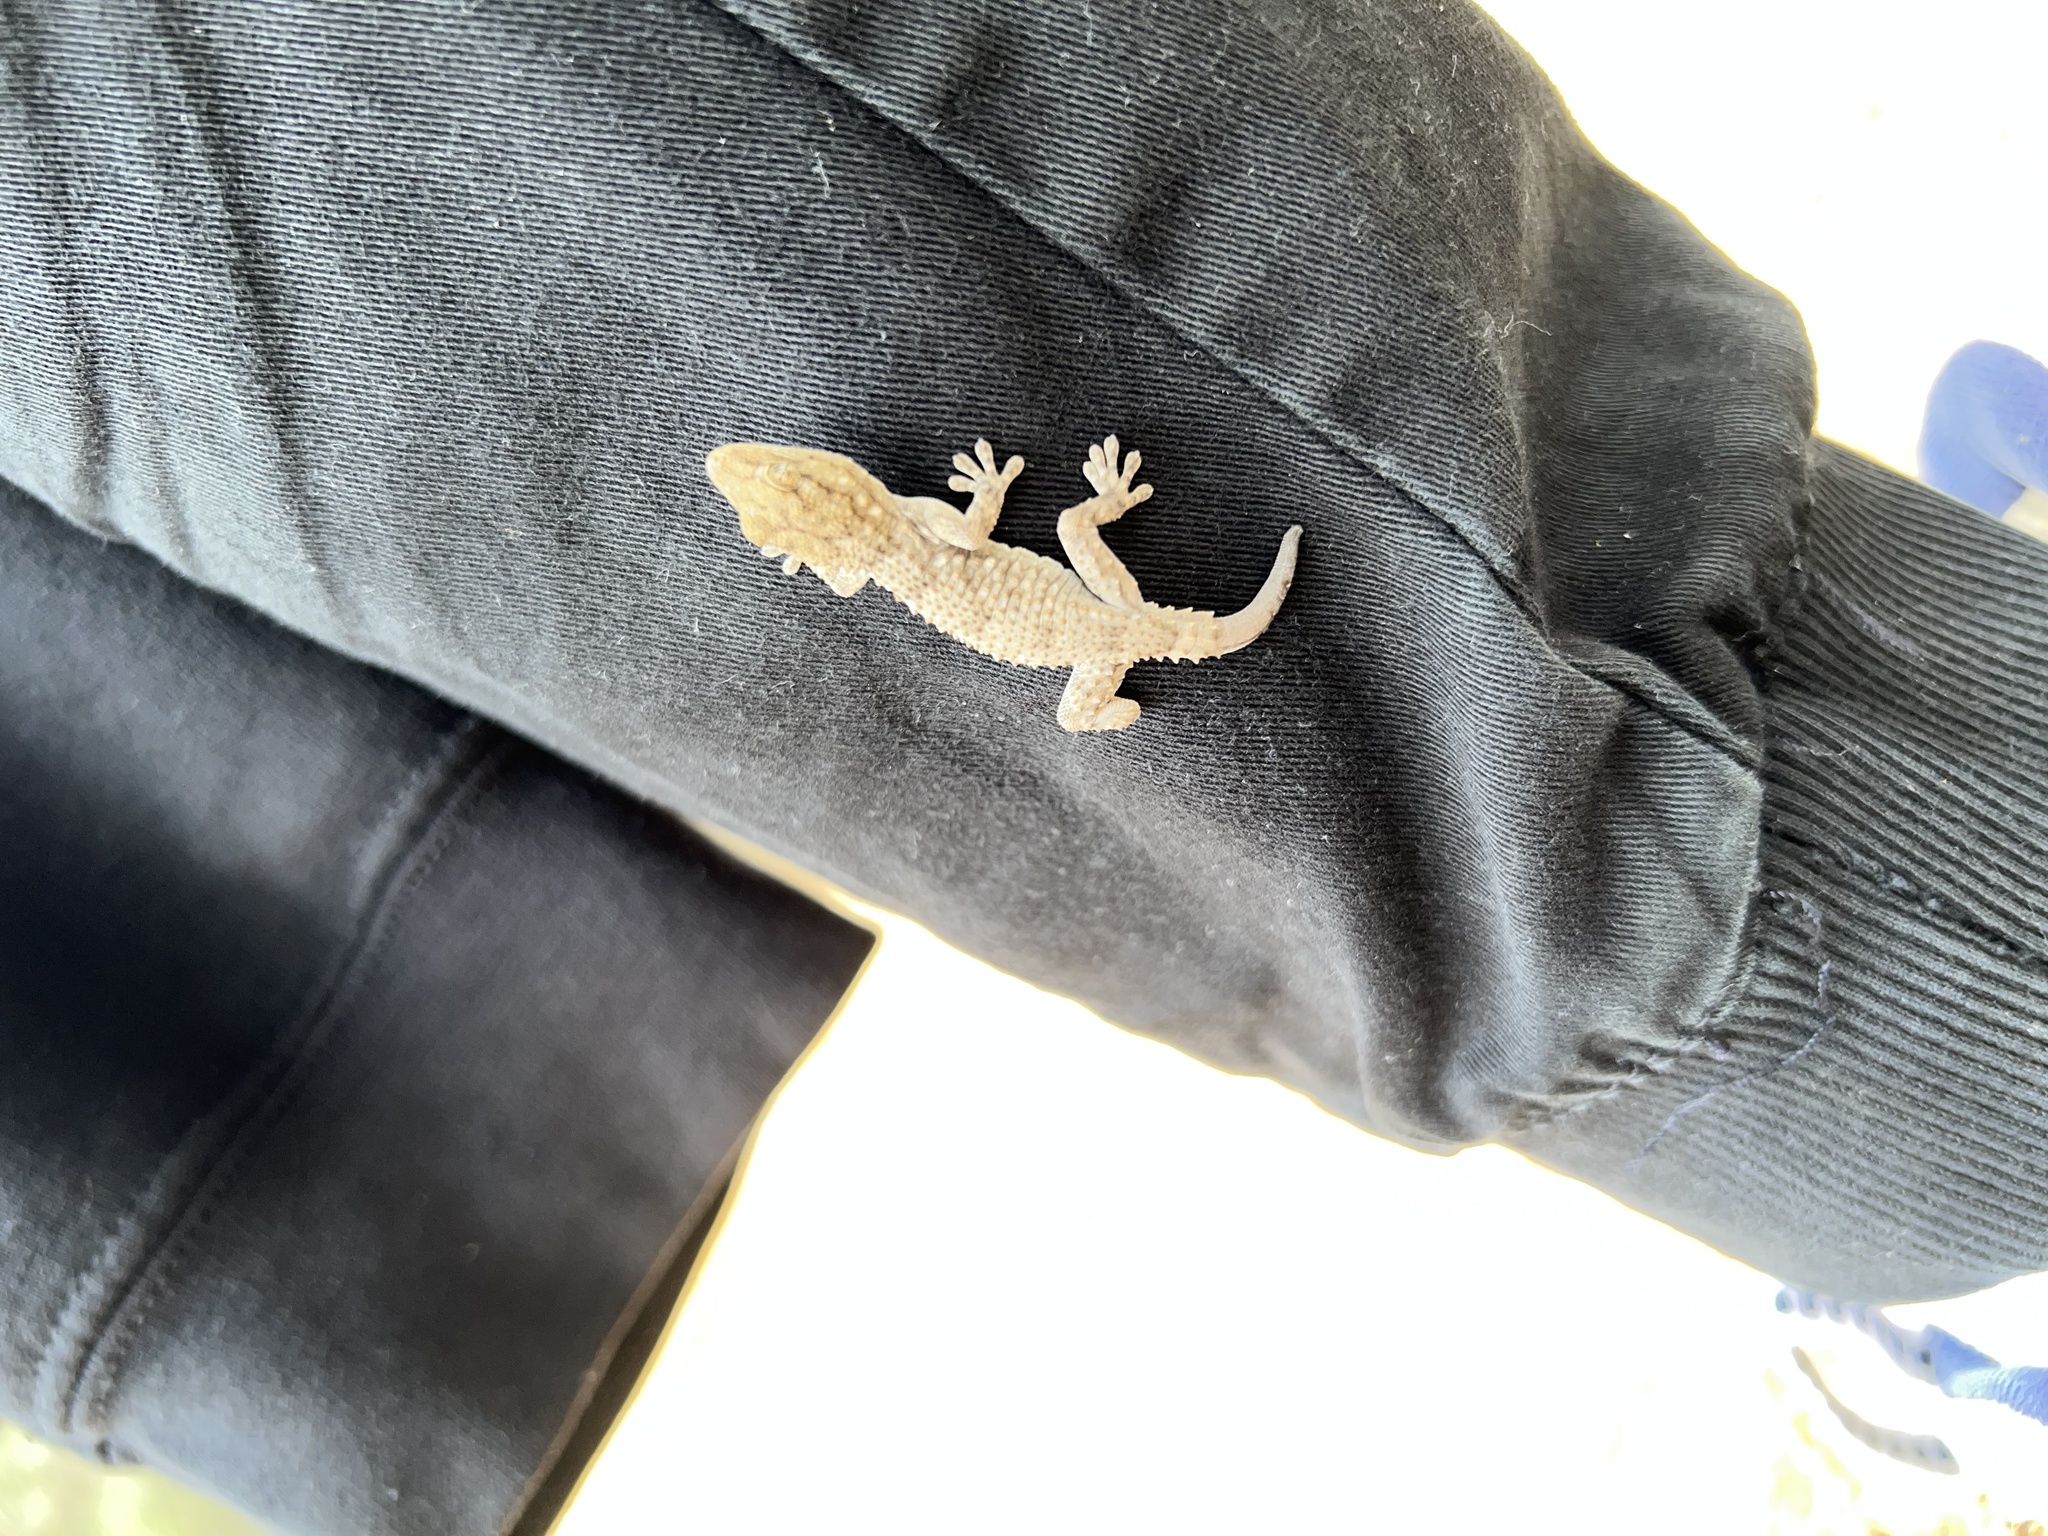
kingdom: Animalia
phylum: Chordata
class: Squamata
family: Phyllodactylidae
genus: Tarentola
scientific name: Tarentola mauritanica
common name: Moorish gecko
